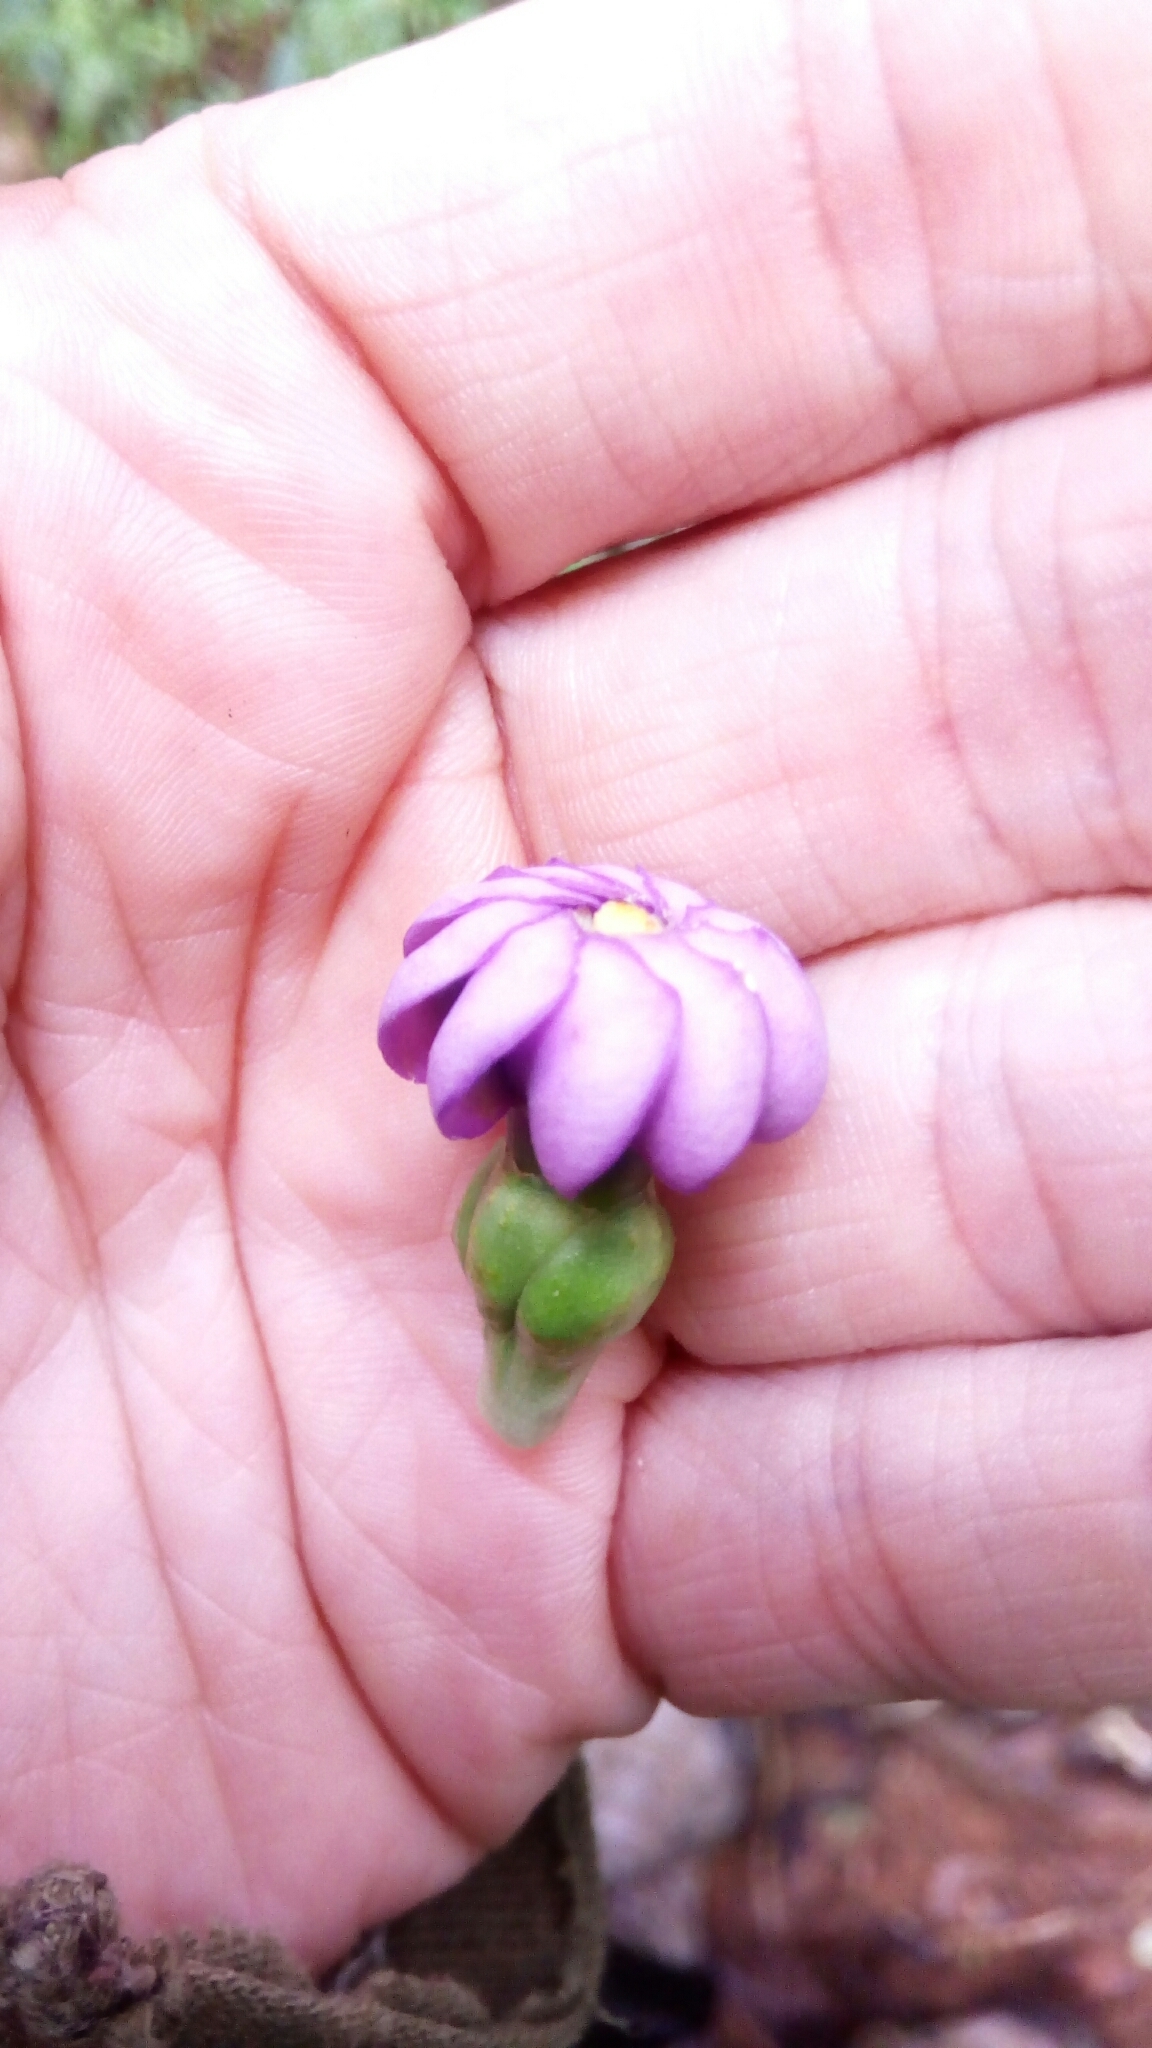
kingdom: Plantae
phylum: Tracheophyta
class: Magnoliopsida
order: Gentianales
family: Gentianaceae
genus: Anthocleista
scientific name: Anthocleista madagascariensis
